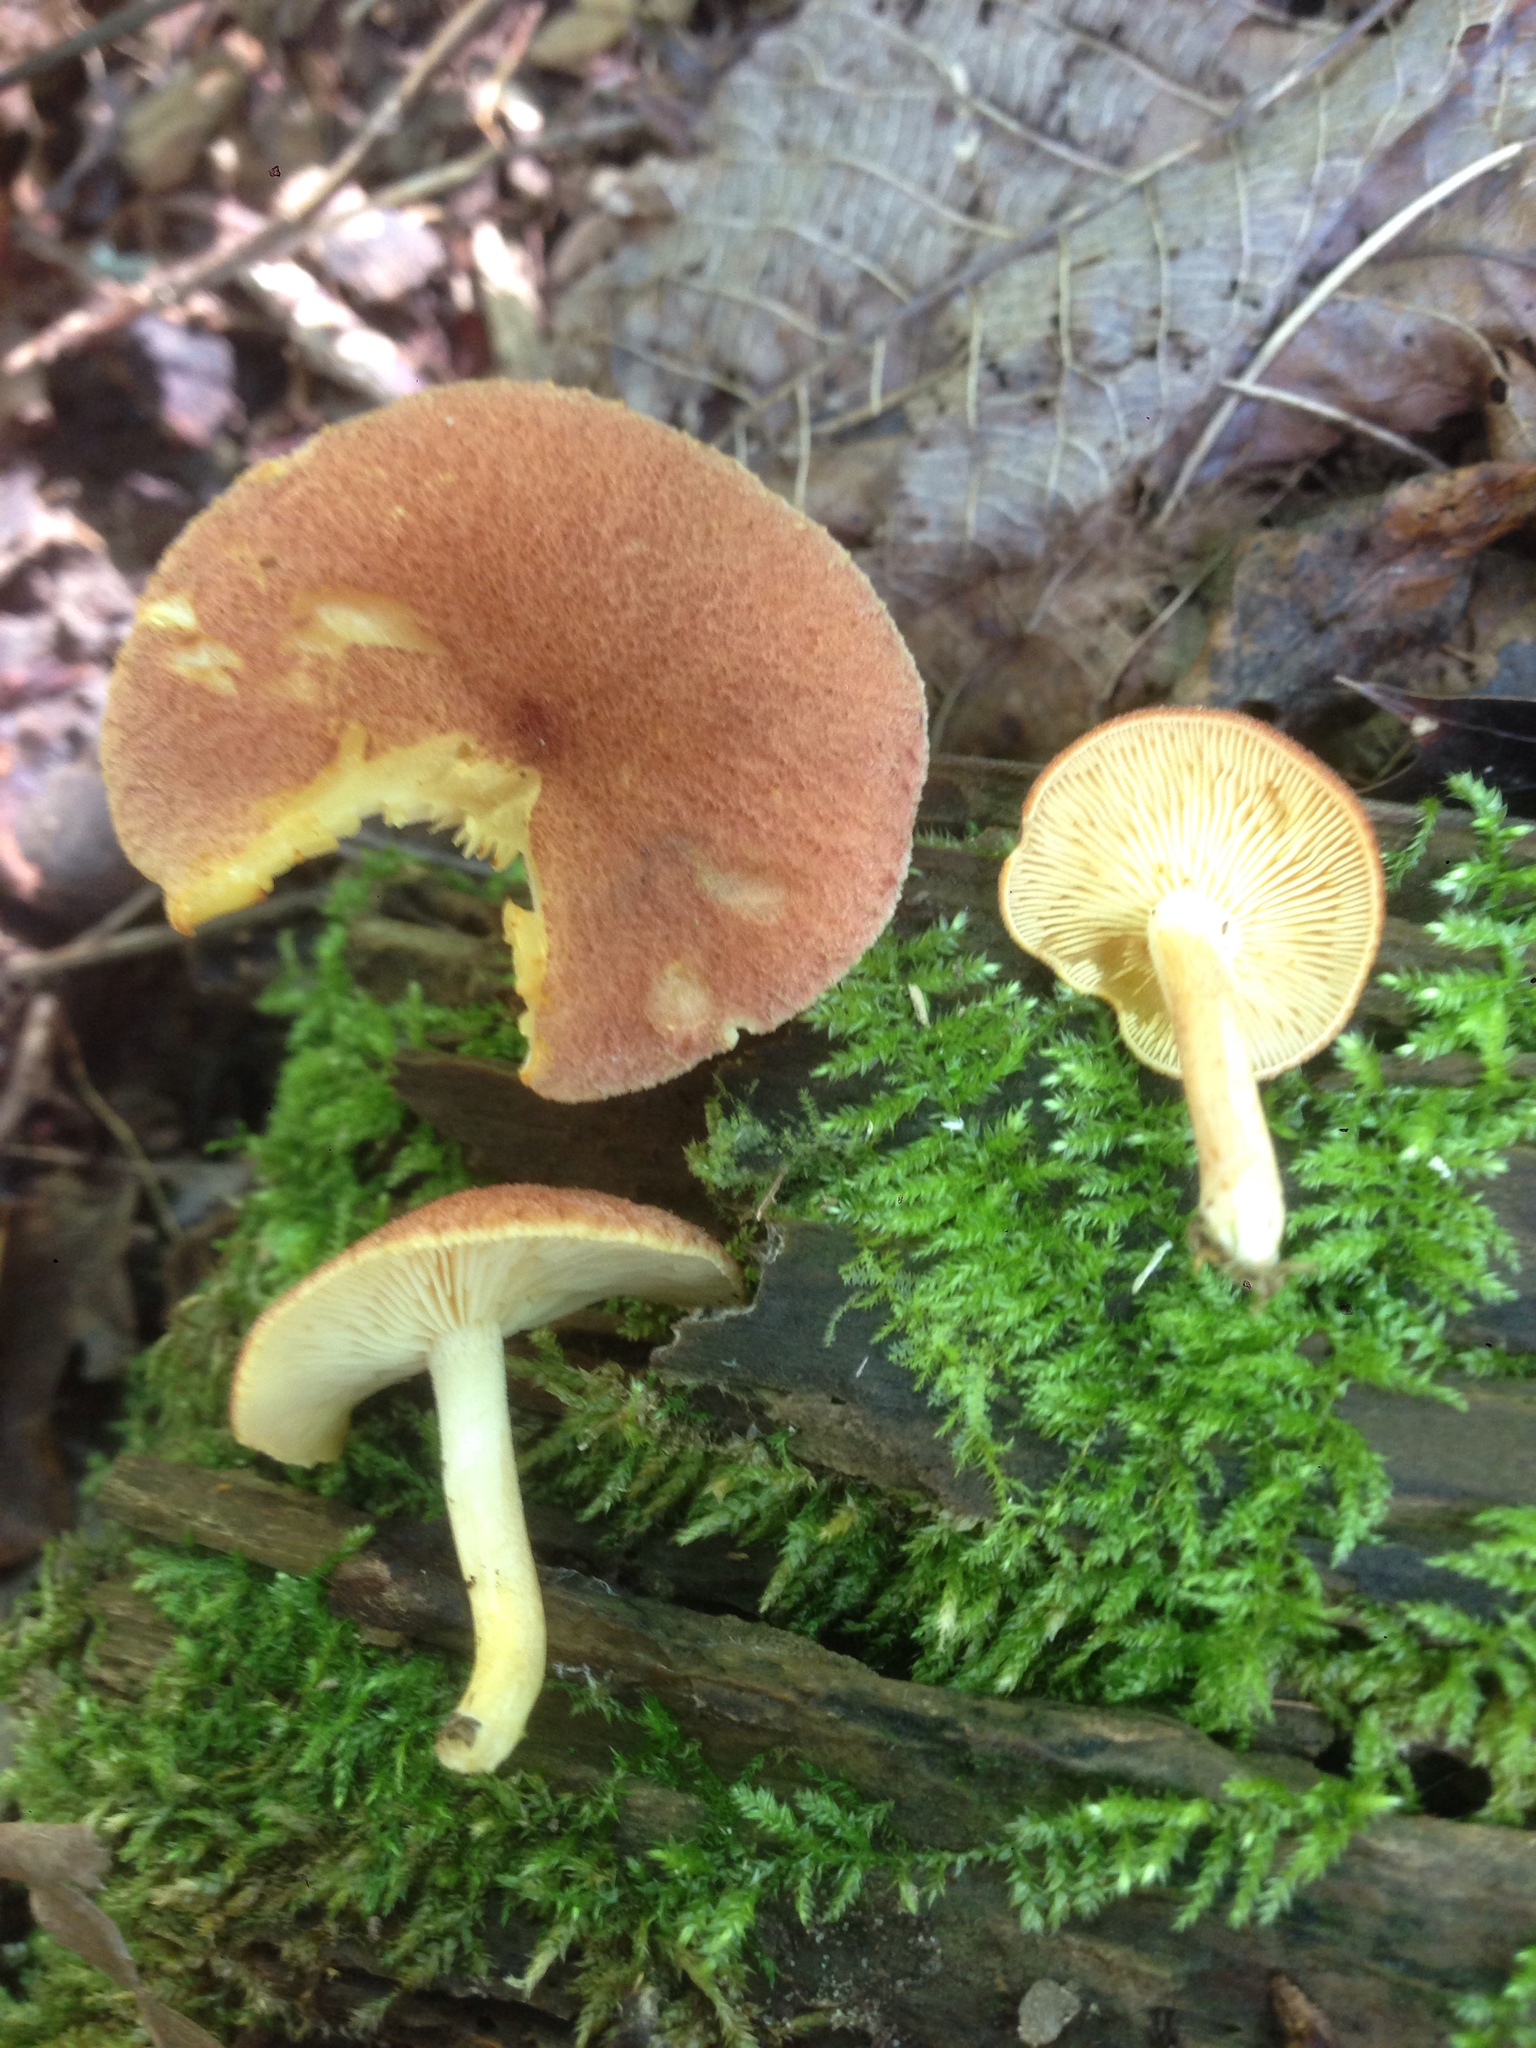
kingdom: Fungi
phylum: Basidiomycota
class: Agaricomycetes
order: Agaricales
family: Tricholomataceae
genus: Tricholomopsis
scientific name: Tricholomopsis flammula
